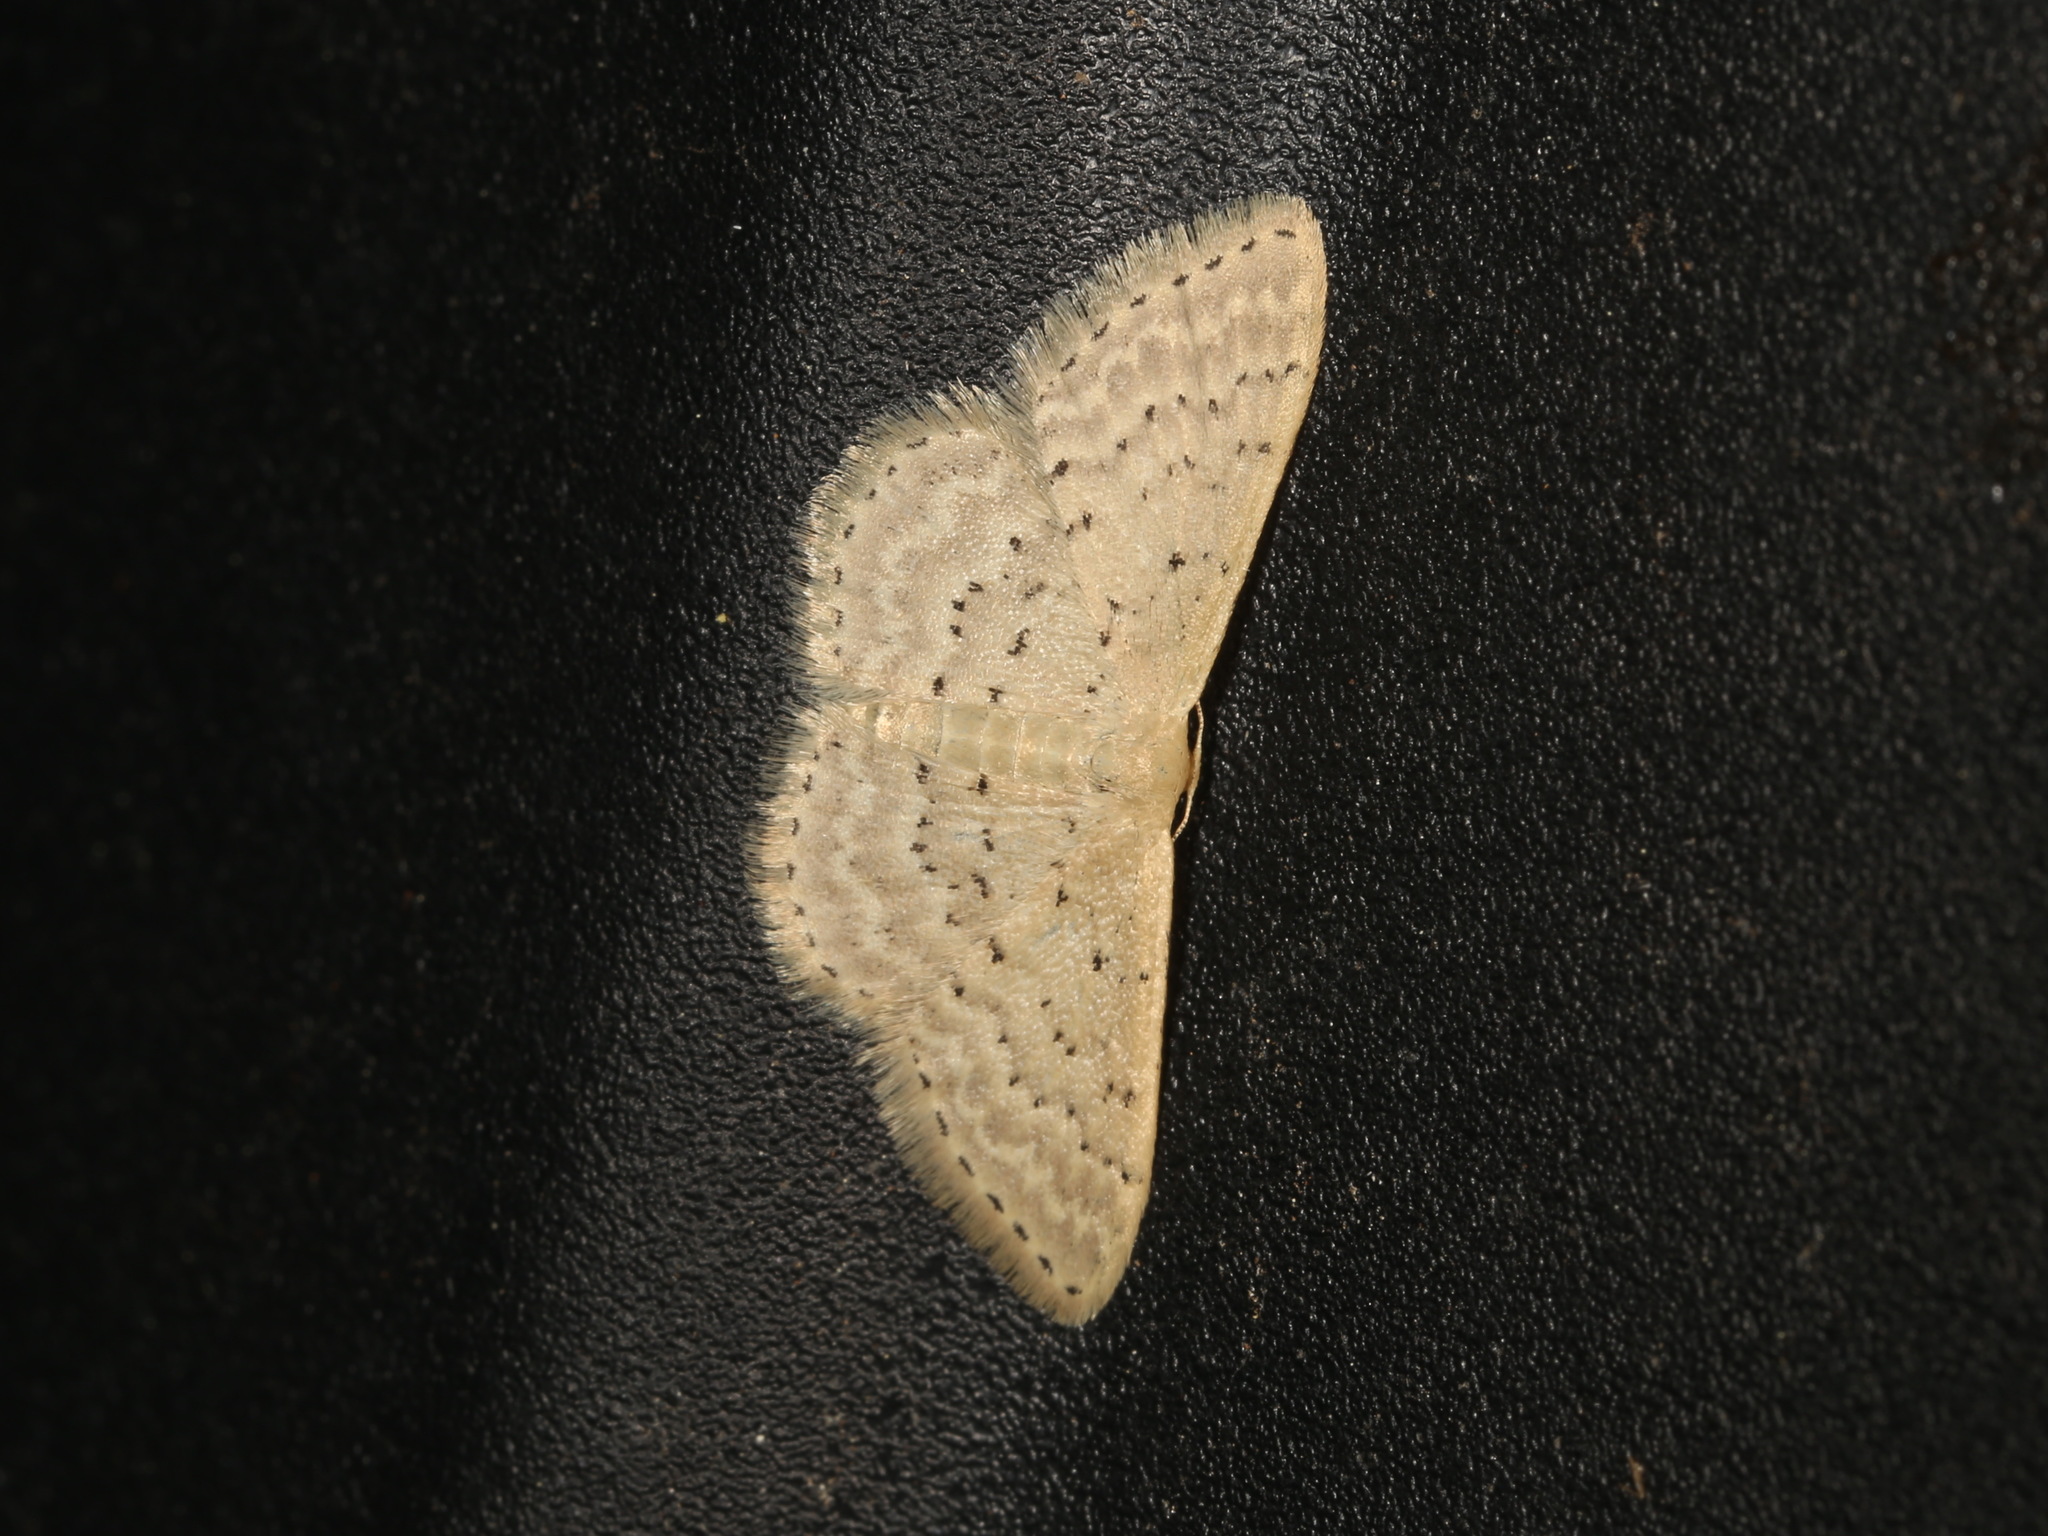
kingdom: Animalia
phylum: Arthropoda
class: Insecta
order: Lepidoptera
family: Geometridae
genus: Idaea
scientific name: Idaea philocosma
